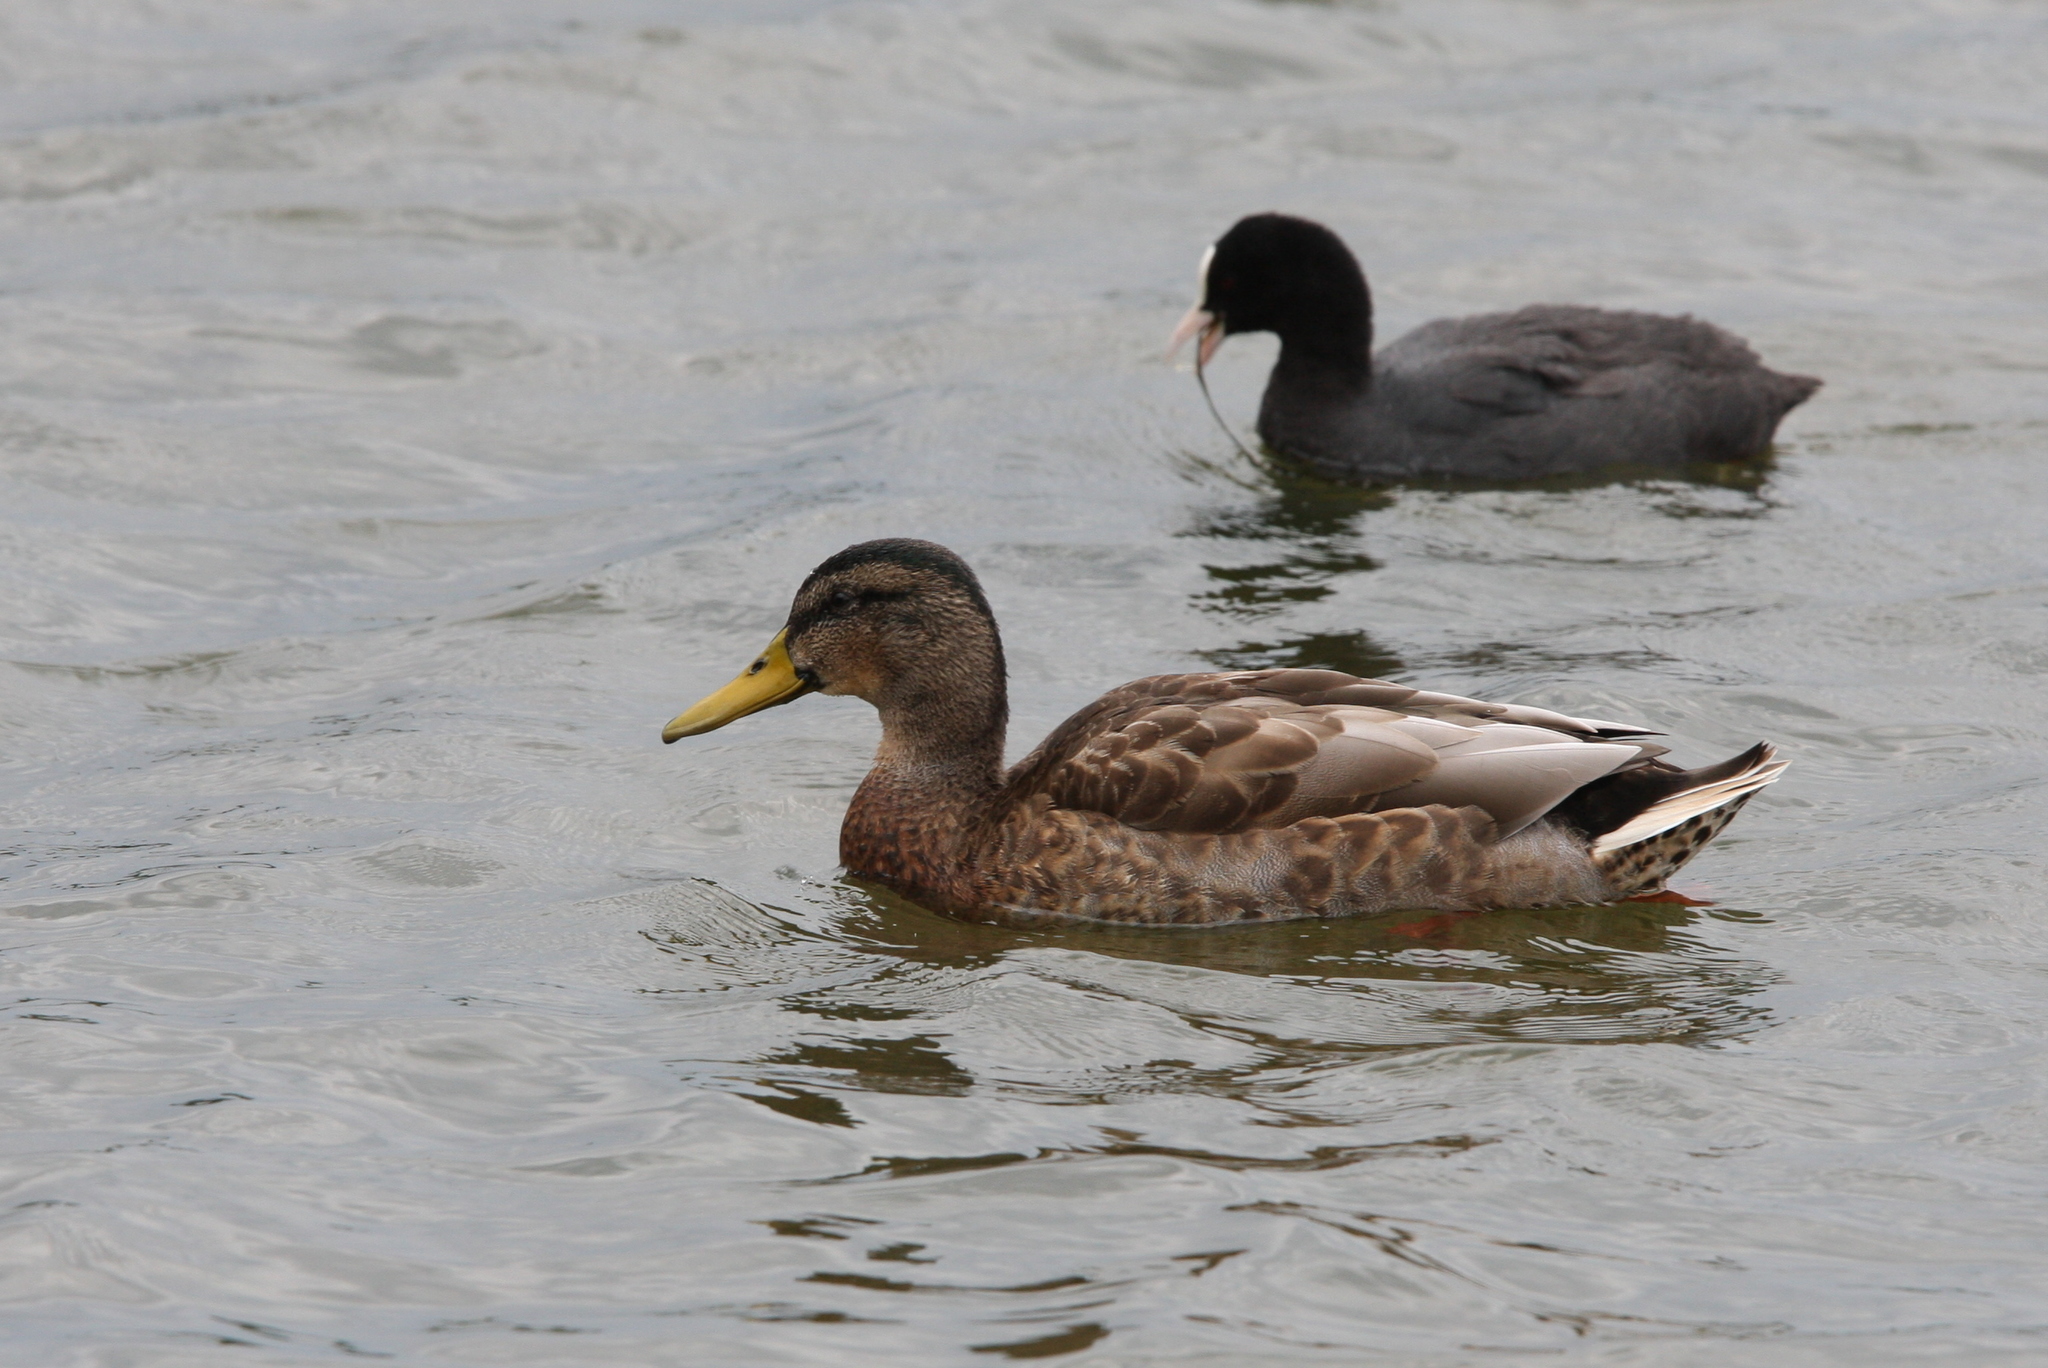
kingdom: Animalia
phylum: Chordata
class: Aves
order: Anseriformes
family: Anatidae
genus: Anas
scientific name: Anas platyrhynchos
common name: Mallard
